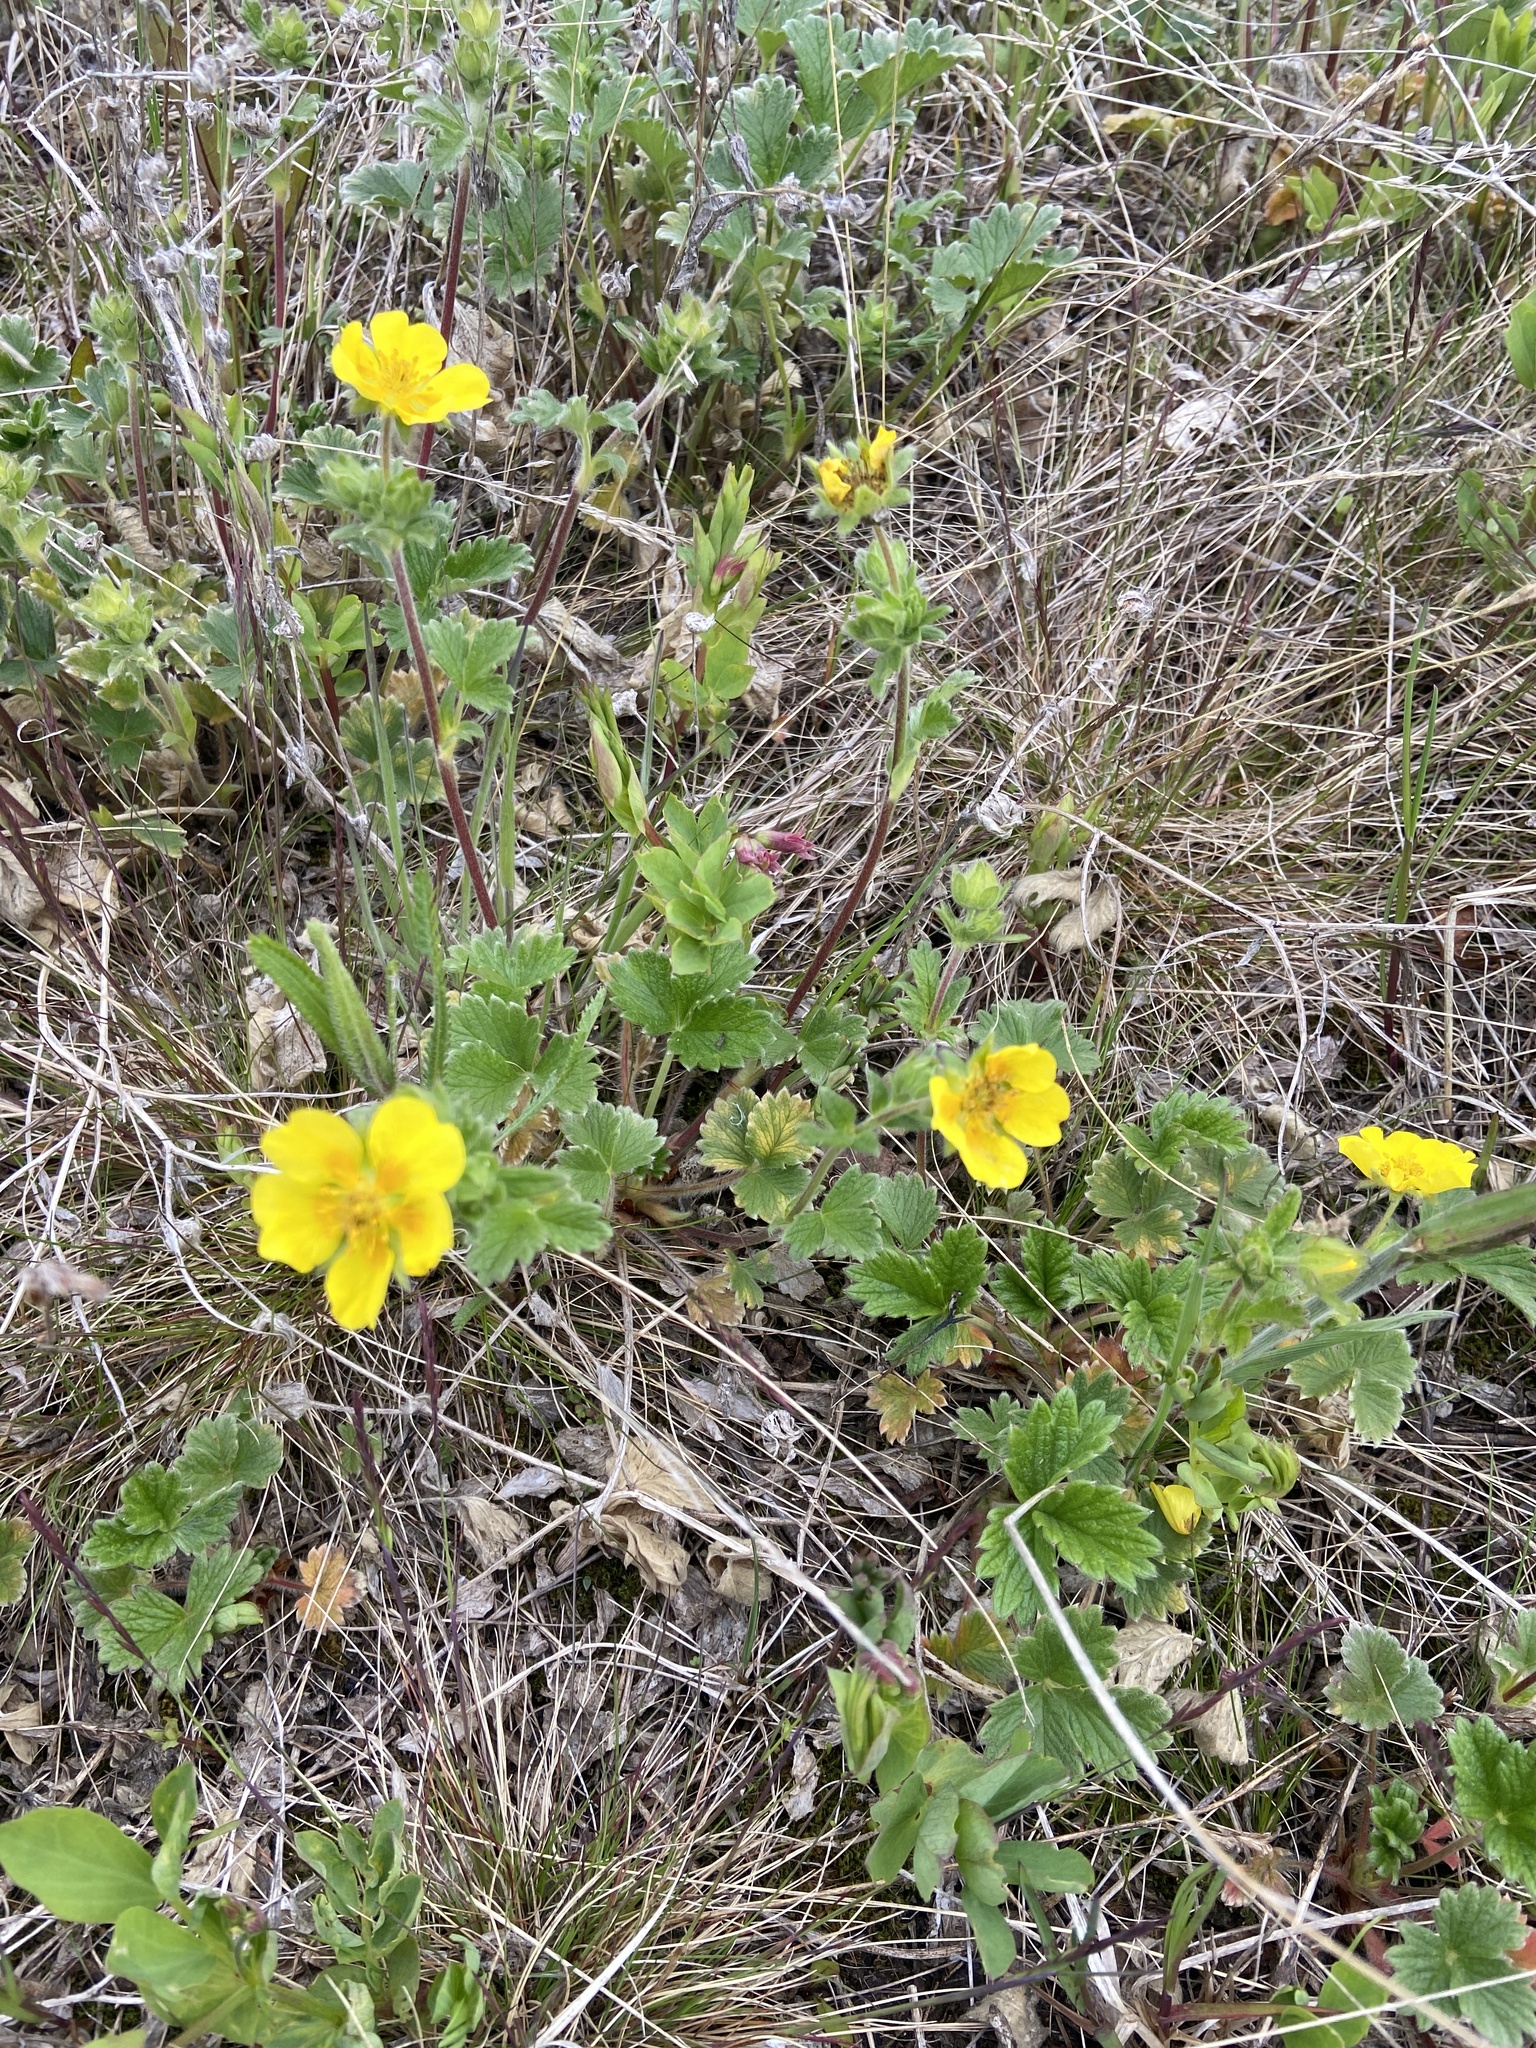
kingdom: Plantae
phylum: Tracheophyta
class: Magnoliopsida
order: Rosales
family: Rosaceae
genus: Potentilla
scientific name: Potentilla fragiformis
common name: Strawberry cinquefoil
